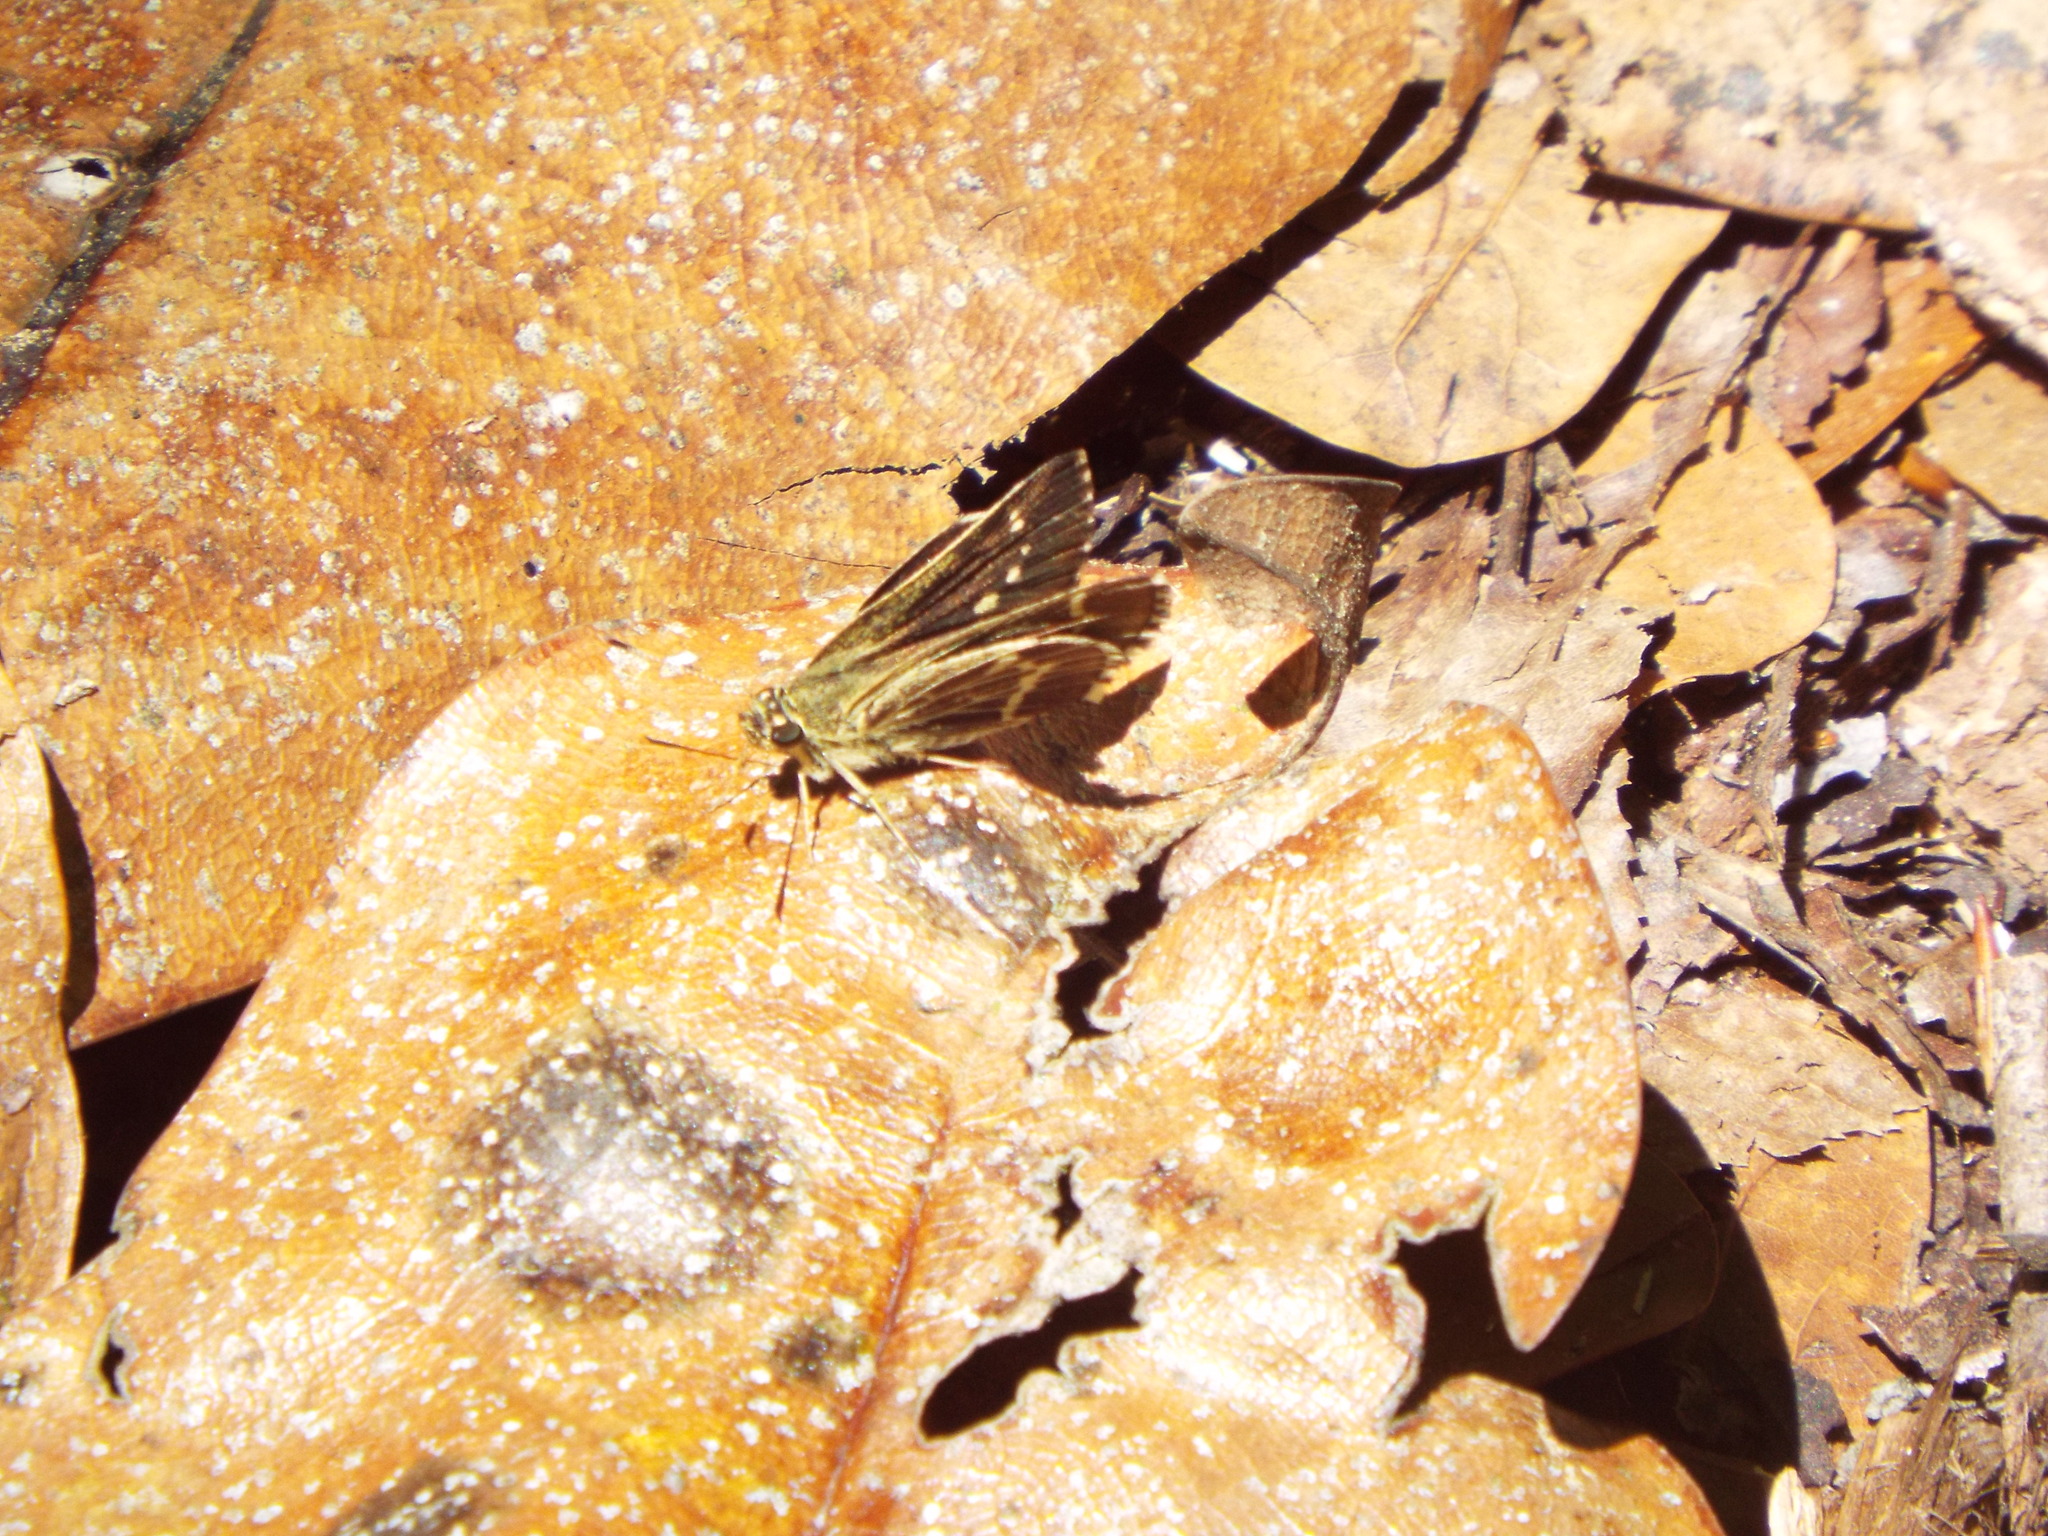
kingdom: Animalia
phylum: Arthropoda
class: Insecta
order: Lepidoptera
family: Hesperiidae
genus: Mastor
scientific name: Mastor aesculapius
